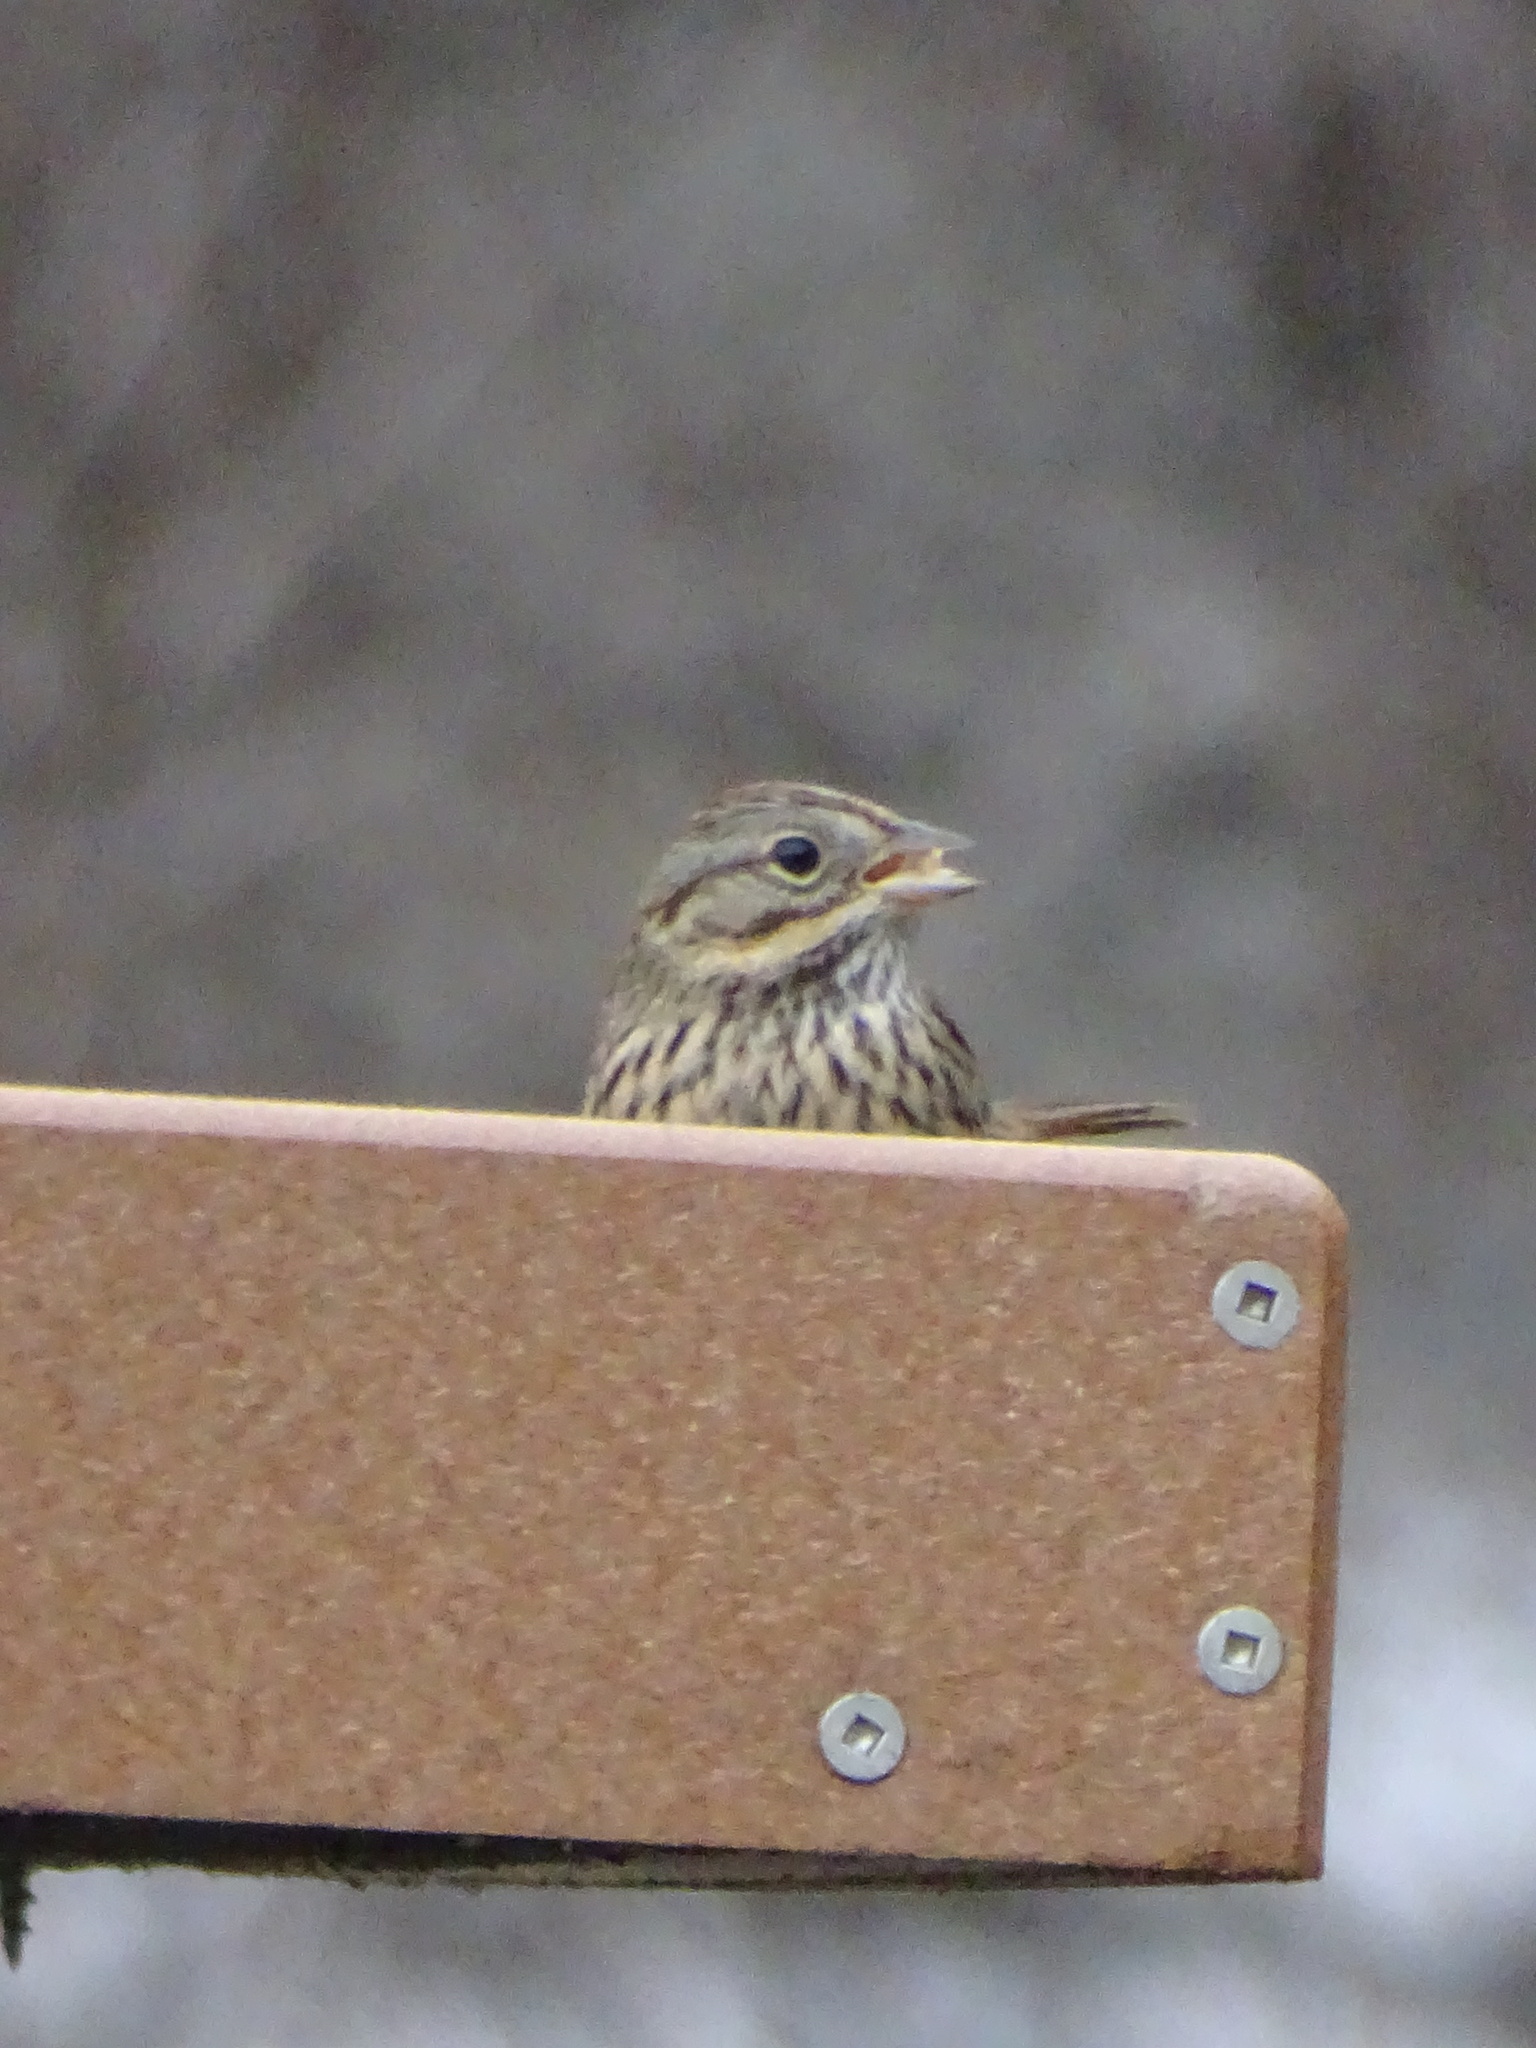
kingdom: Animalia
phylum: Chordata
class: Aves
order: Passeriformes
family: Passerellidae
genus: Melospiza
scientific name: Melospiza lincolnii
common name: Lincoln's sparrow
